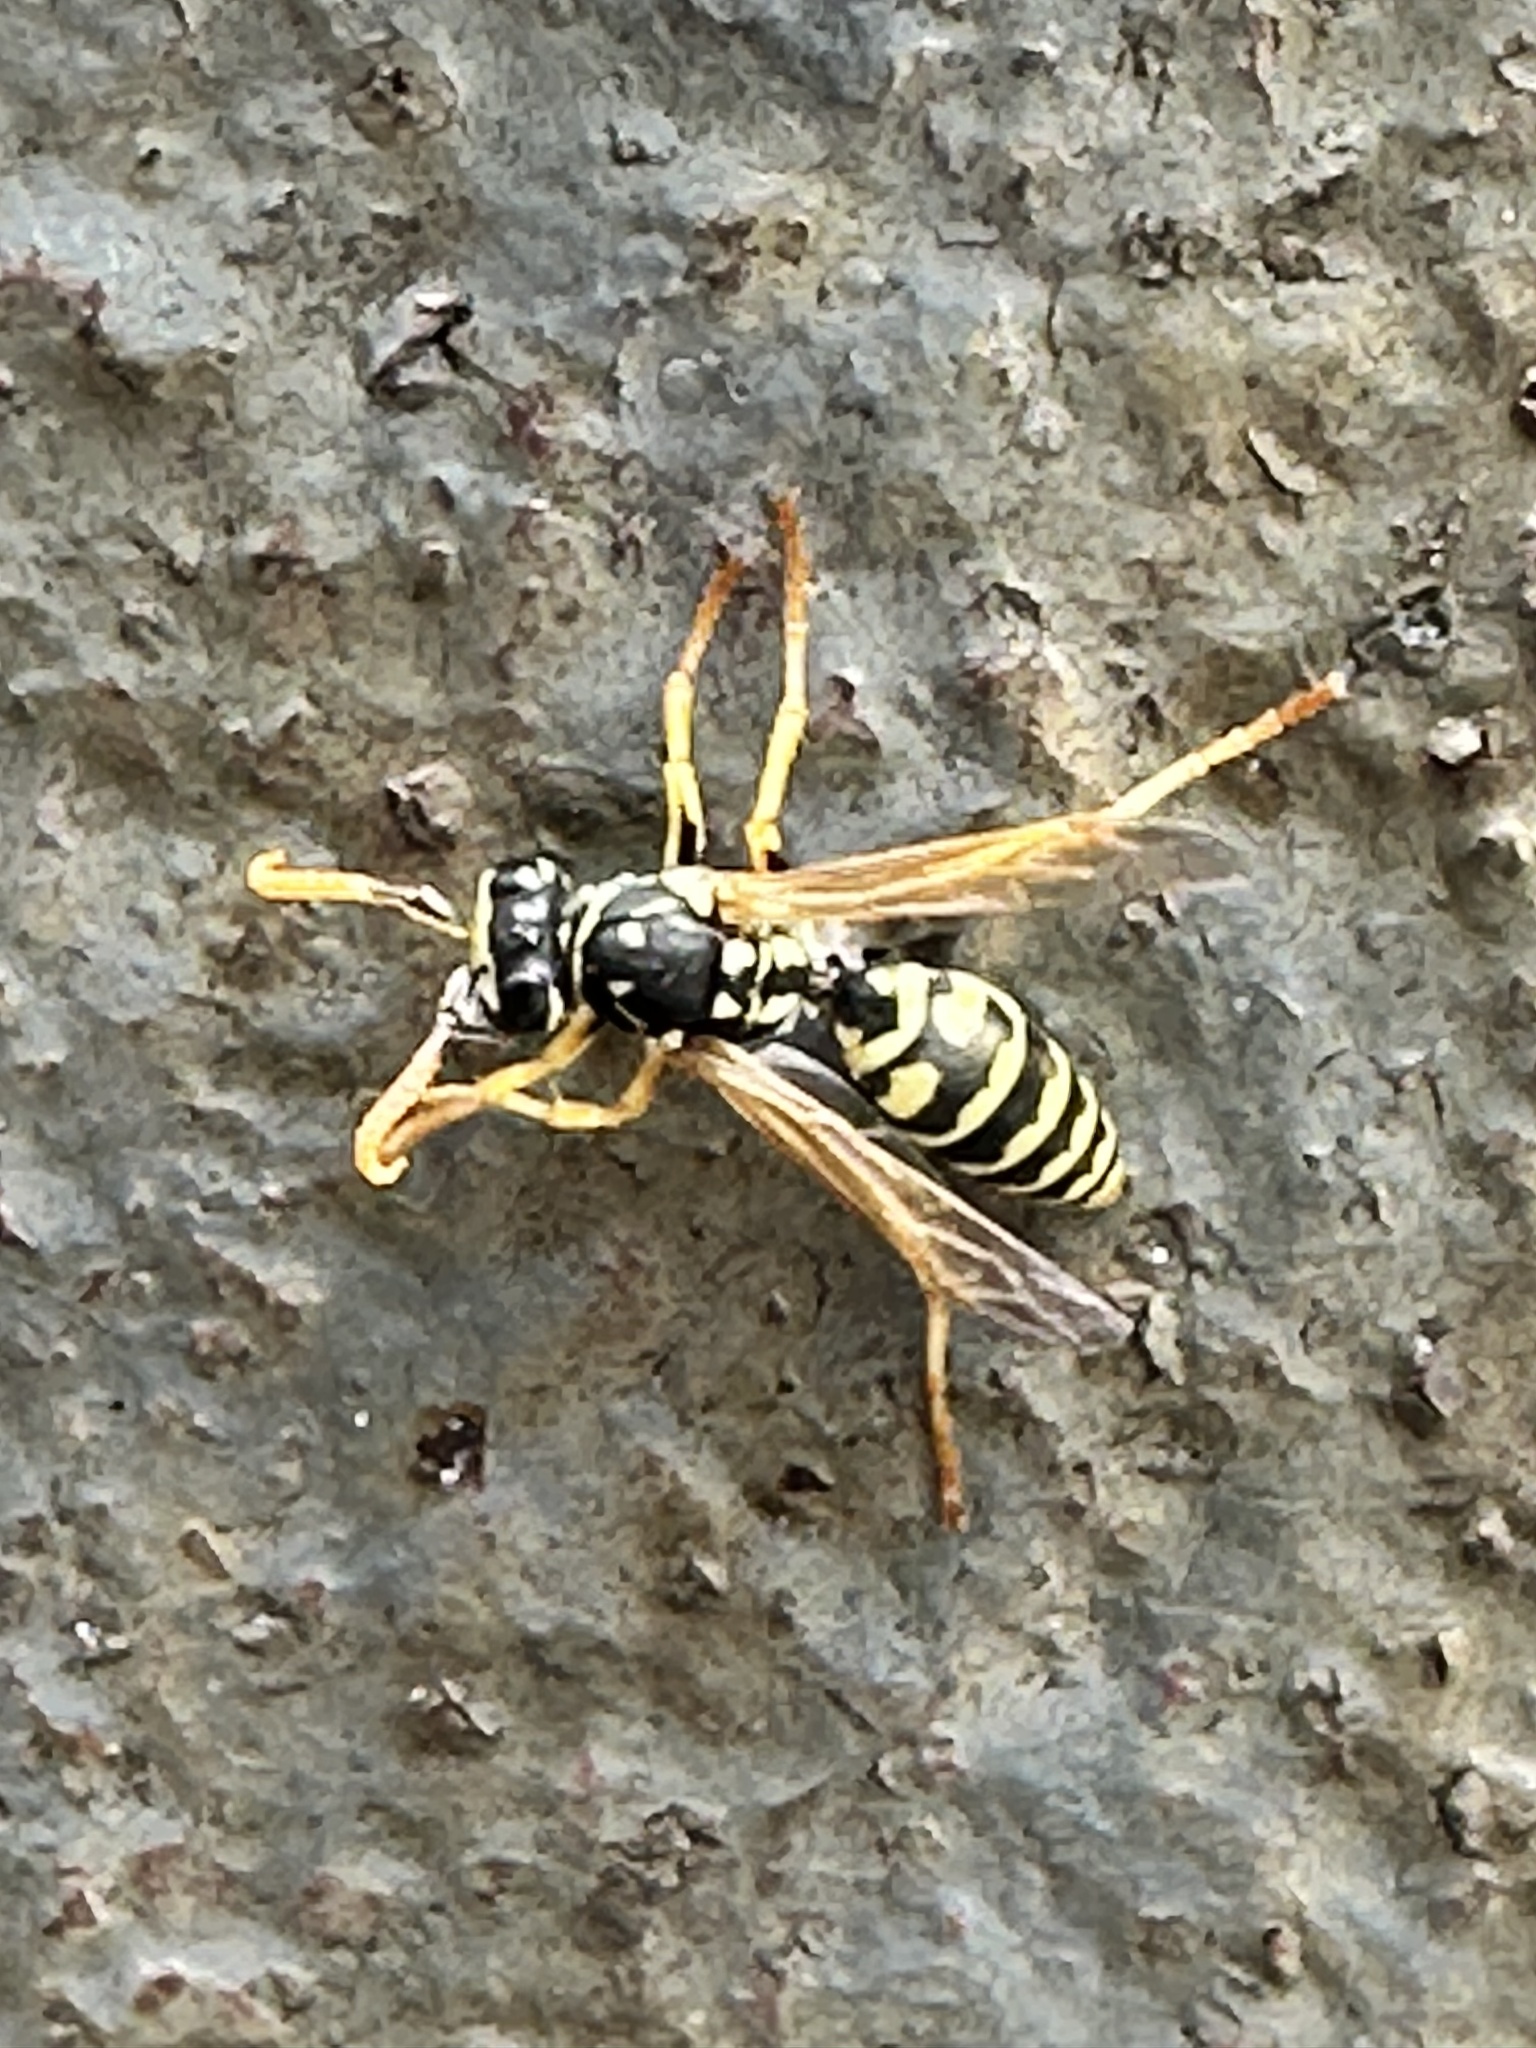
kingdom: Animalia
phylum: Arthropoda
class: Insecta
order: Hymenoptera
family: Eumenidae
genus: Polistes
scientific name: Polistes dominula
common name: Paper wasp
